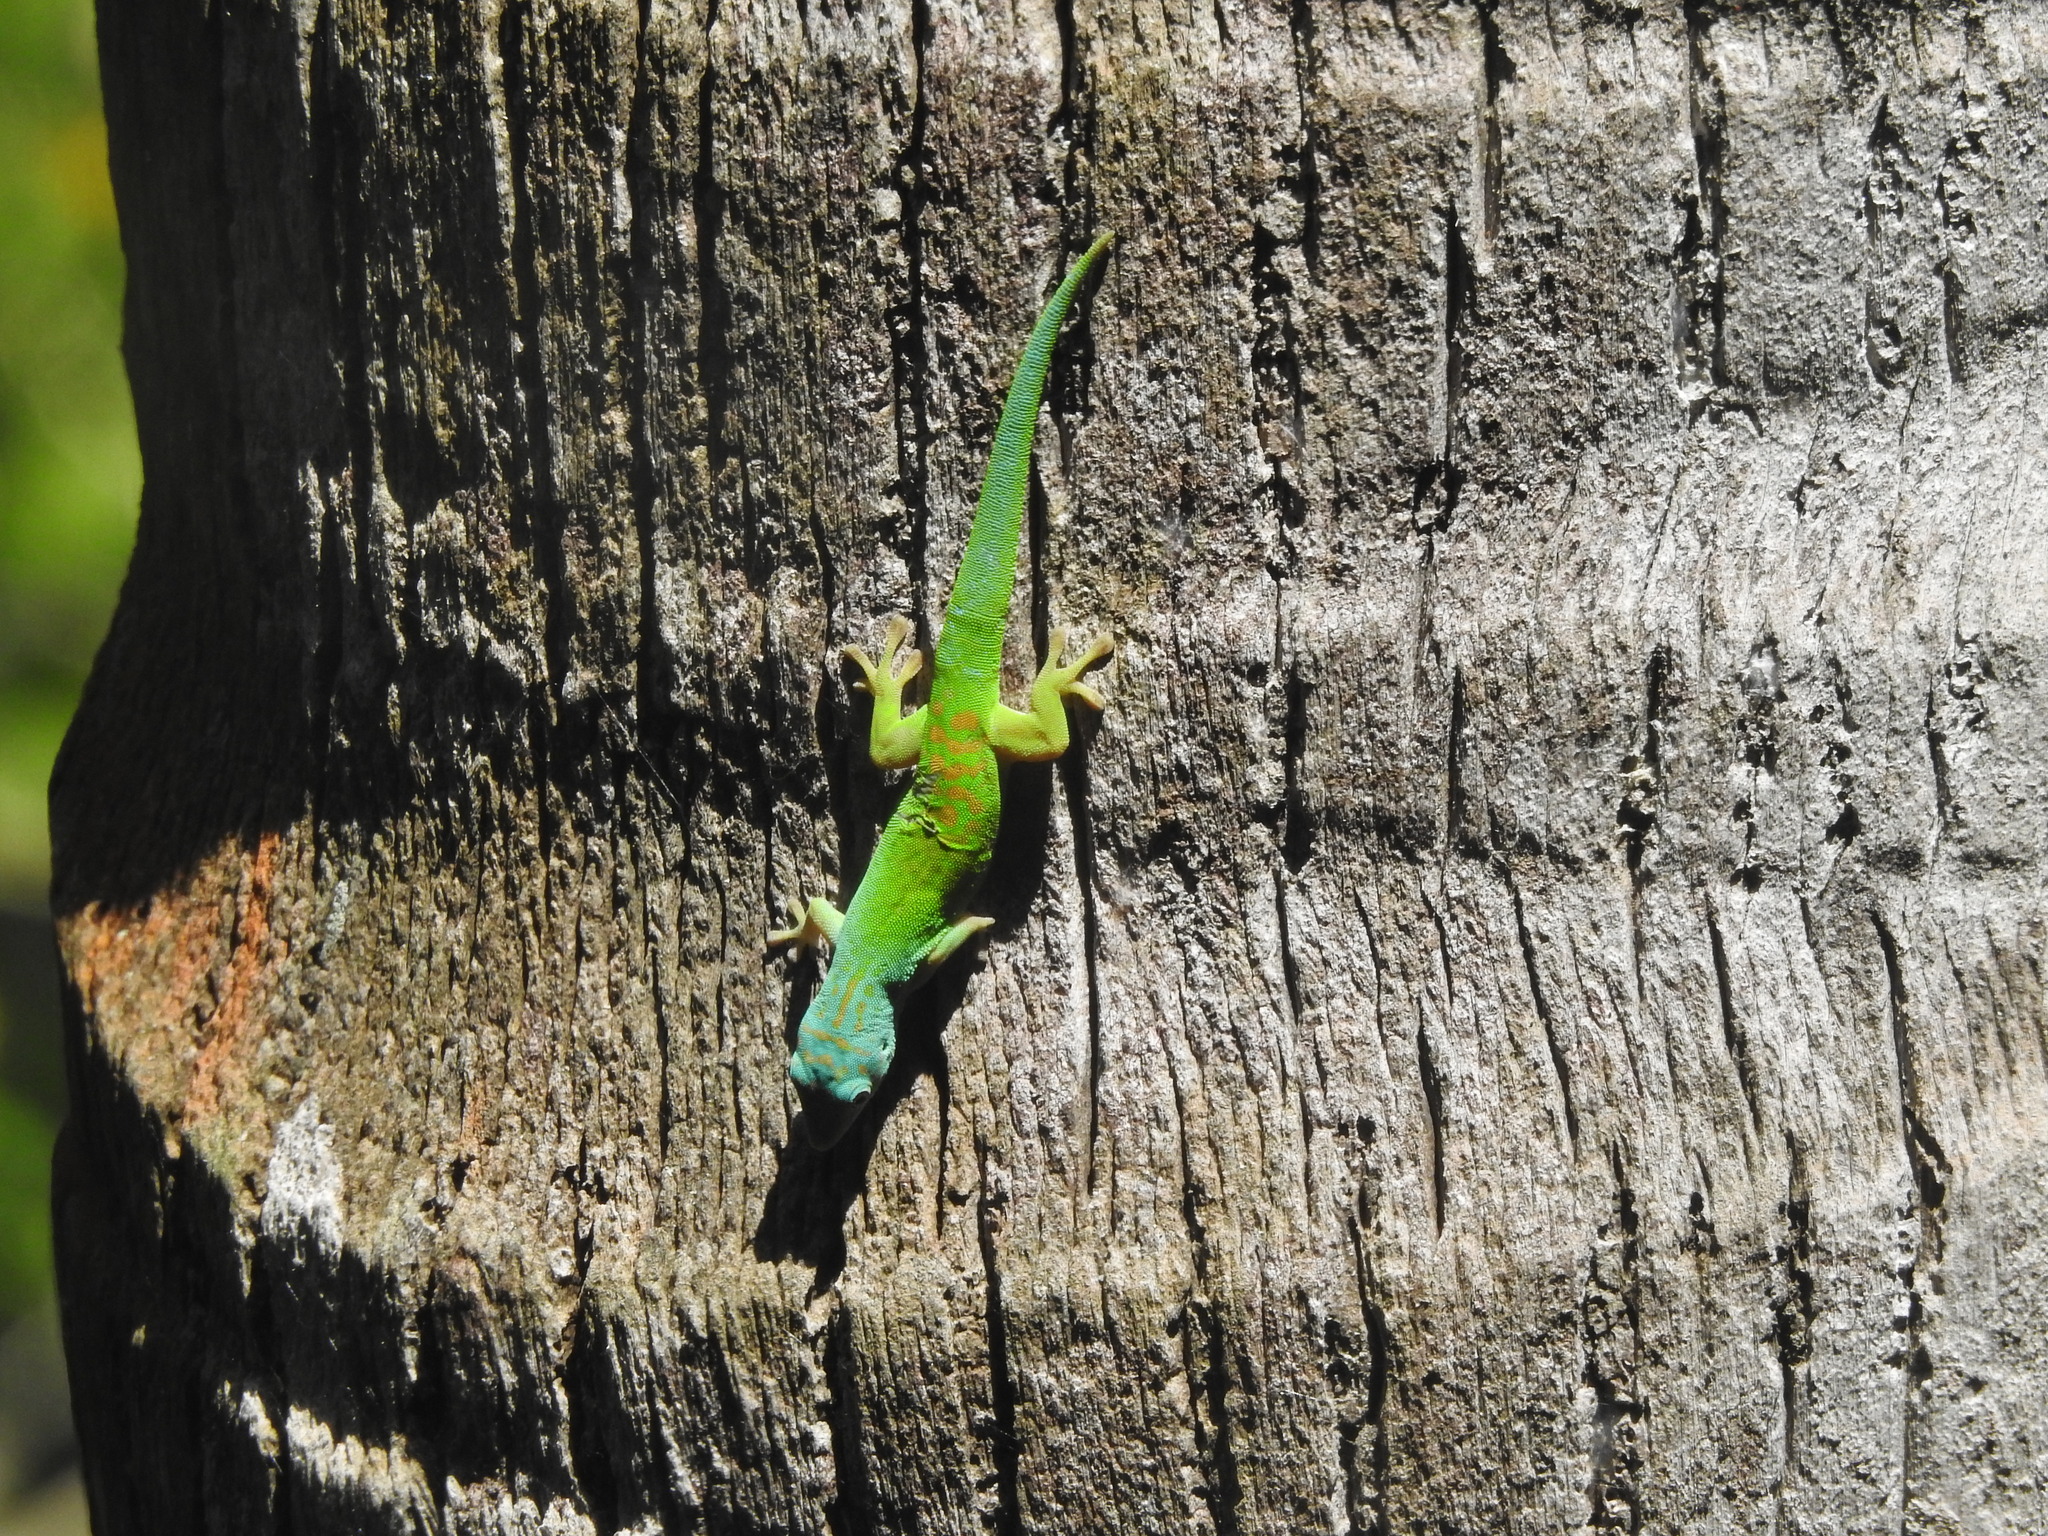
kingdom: Animalia
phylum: Chordata
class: Squamata
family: Gekkonidae
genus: Phelsuma
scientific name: Phelsuma andamanensis
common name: Andaman day gecko
